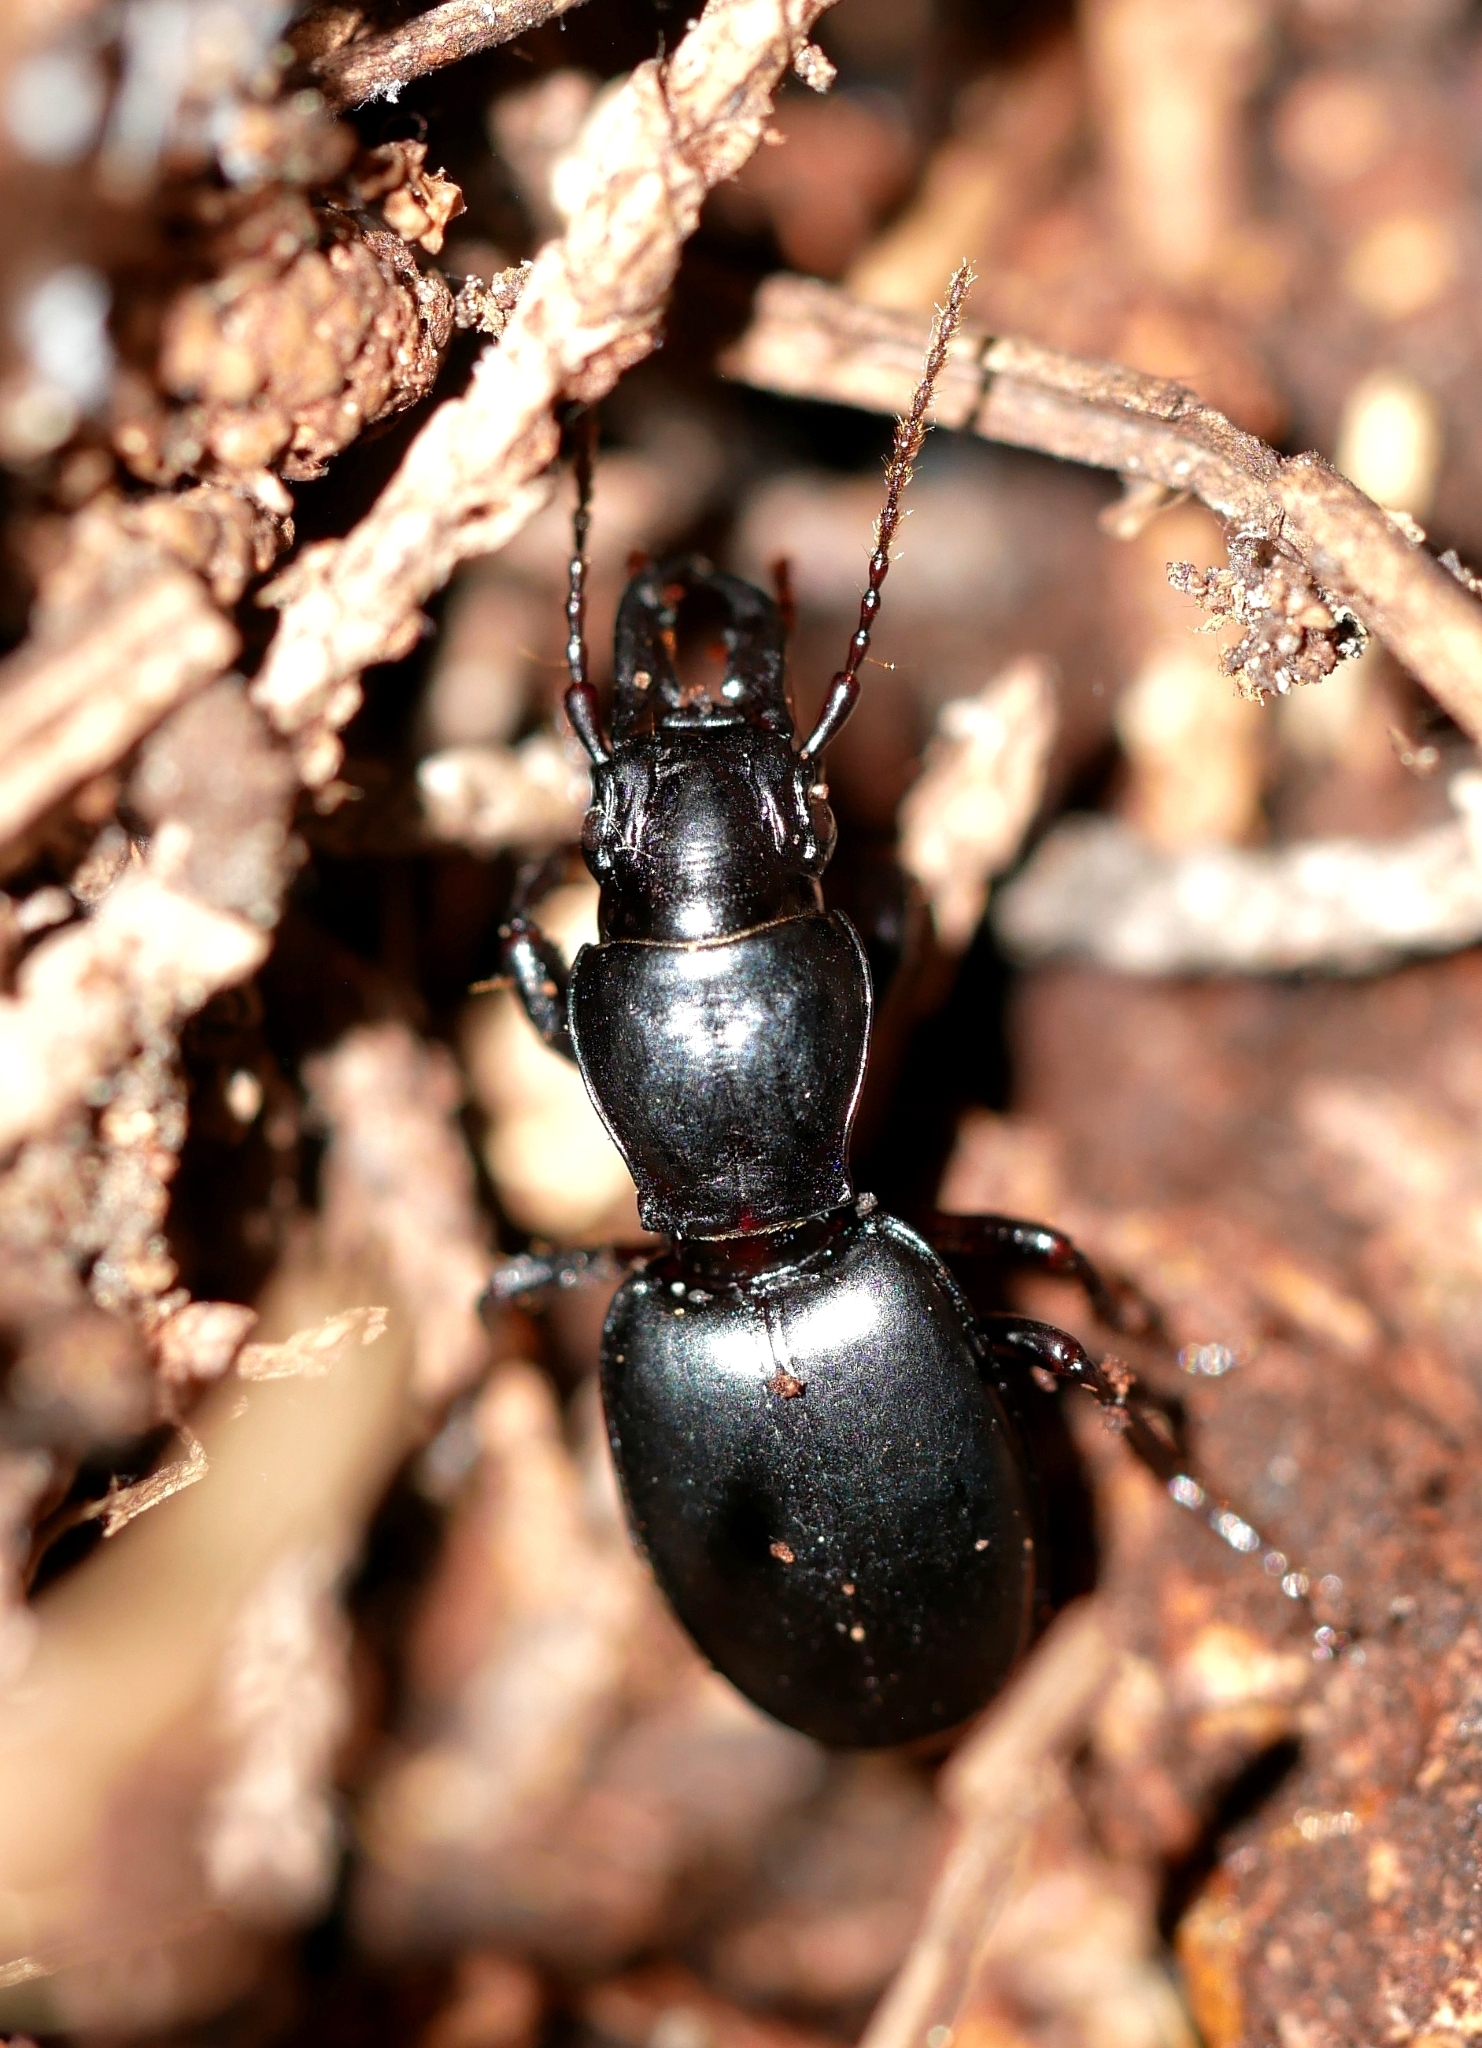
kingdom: Animalia
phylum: Arthropoda
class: Insecta
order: Coleoptera
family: Carabidae
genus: Promecognathus
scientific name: Promecognathus crassus
